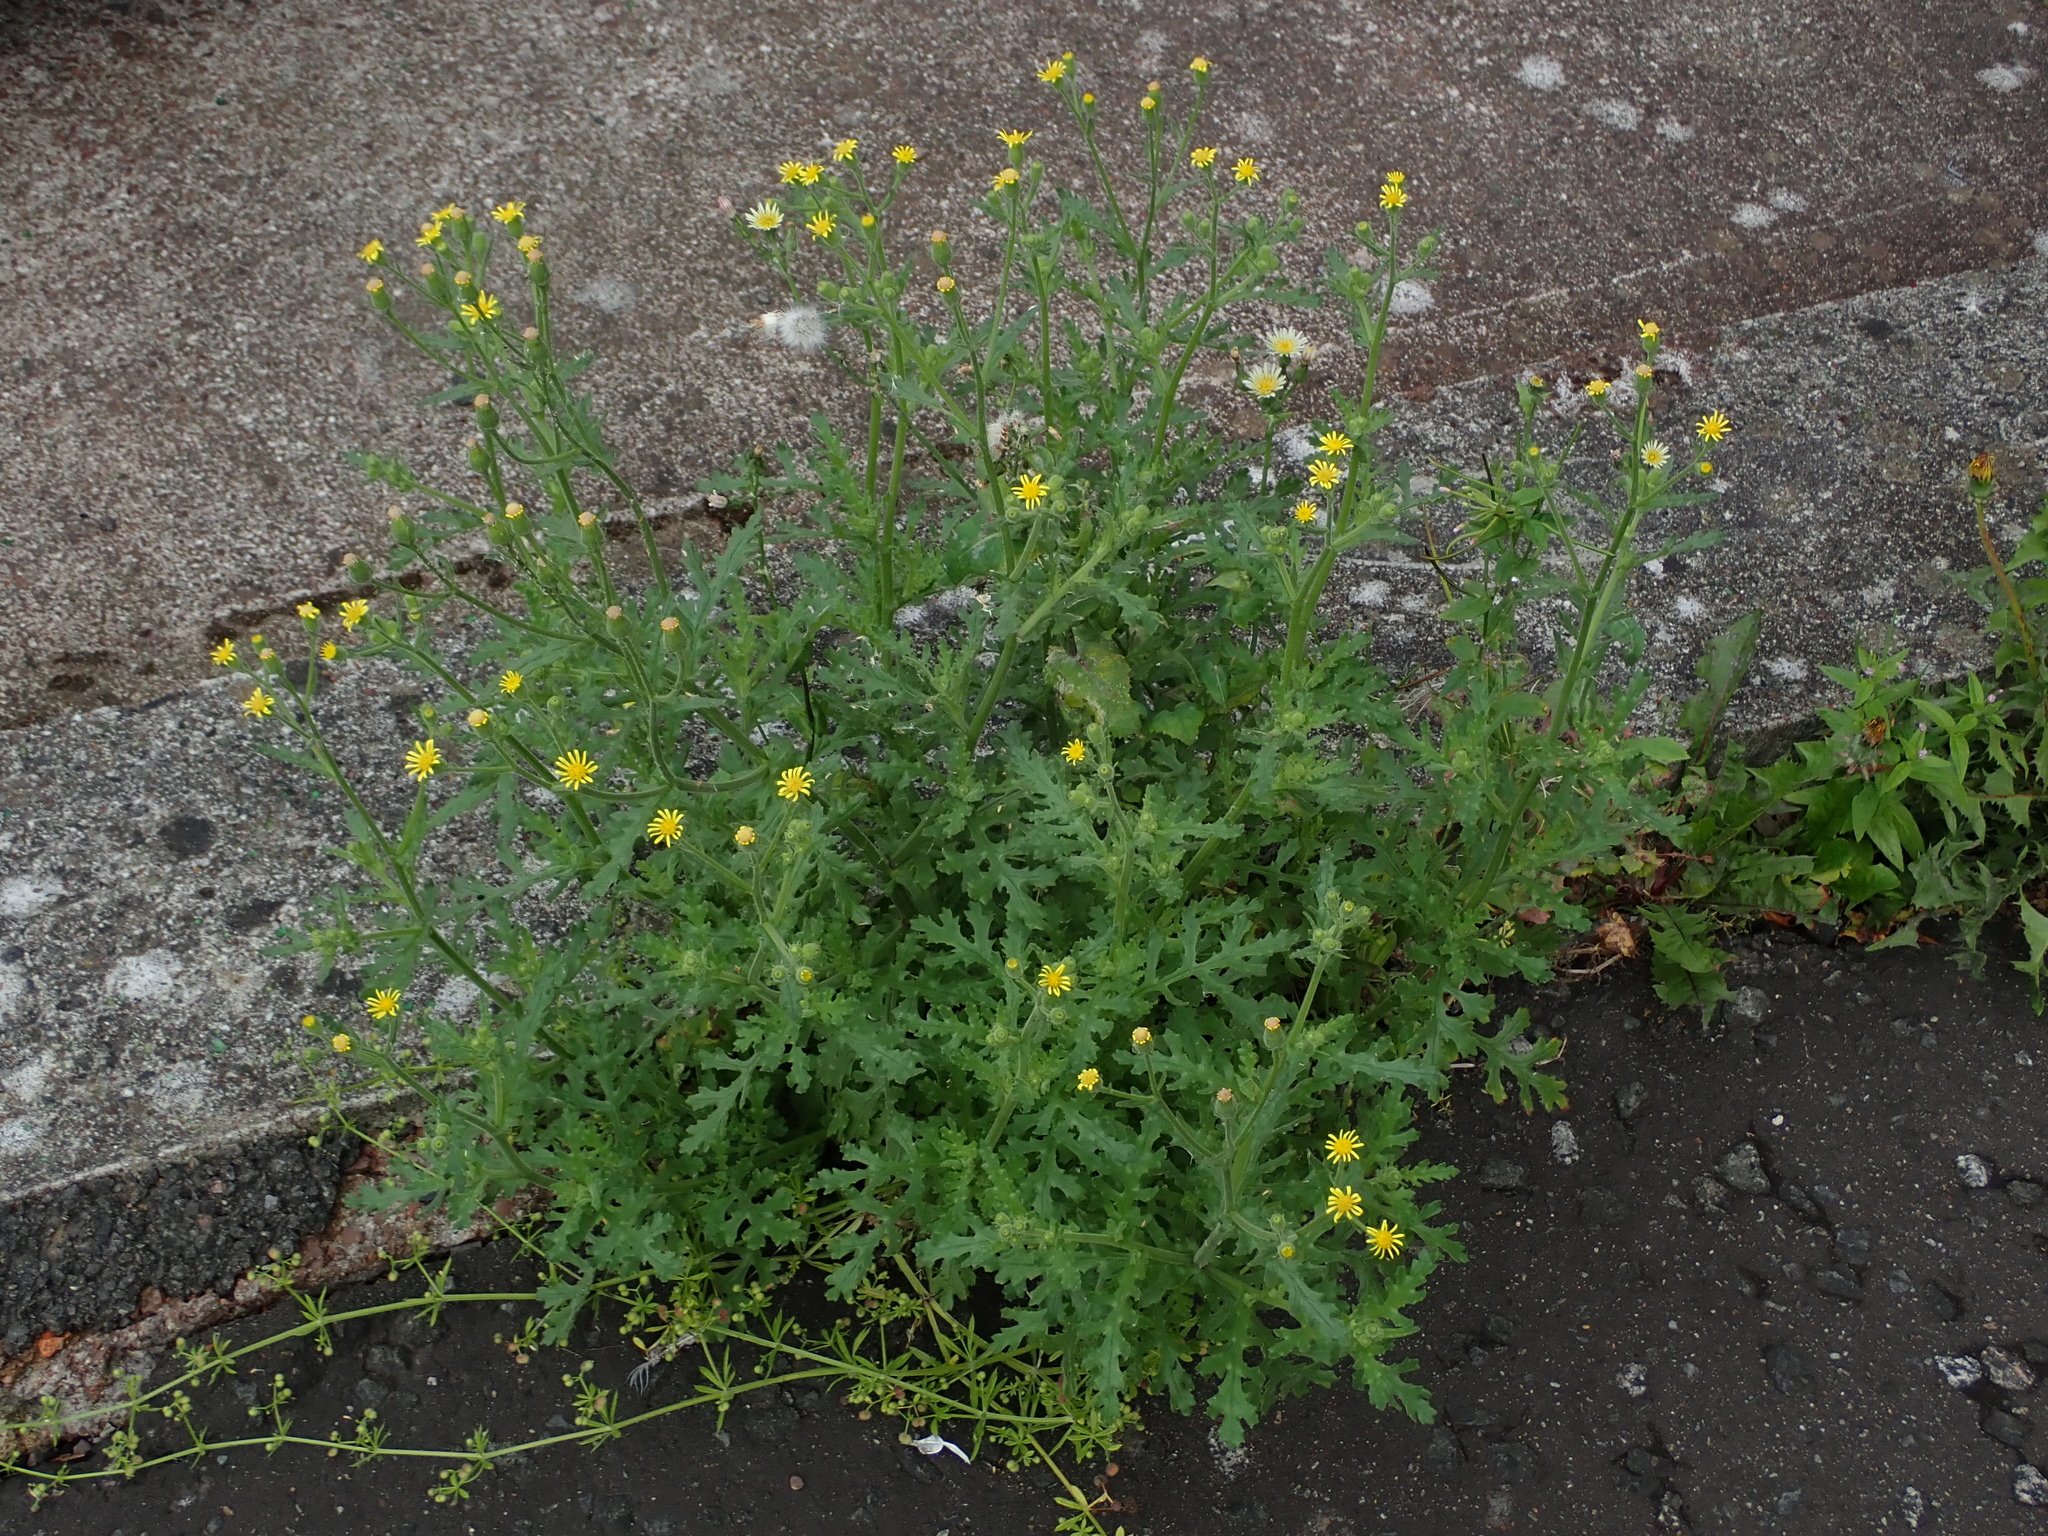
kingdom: Plantae
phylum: Tracheophyta
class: Magnoliopsida
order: Asterales
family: Asteraceae
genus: Senecio
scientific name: Senecio viscosus
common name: Sticky groundsel
